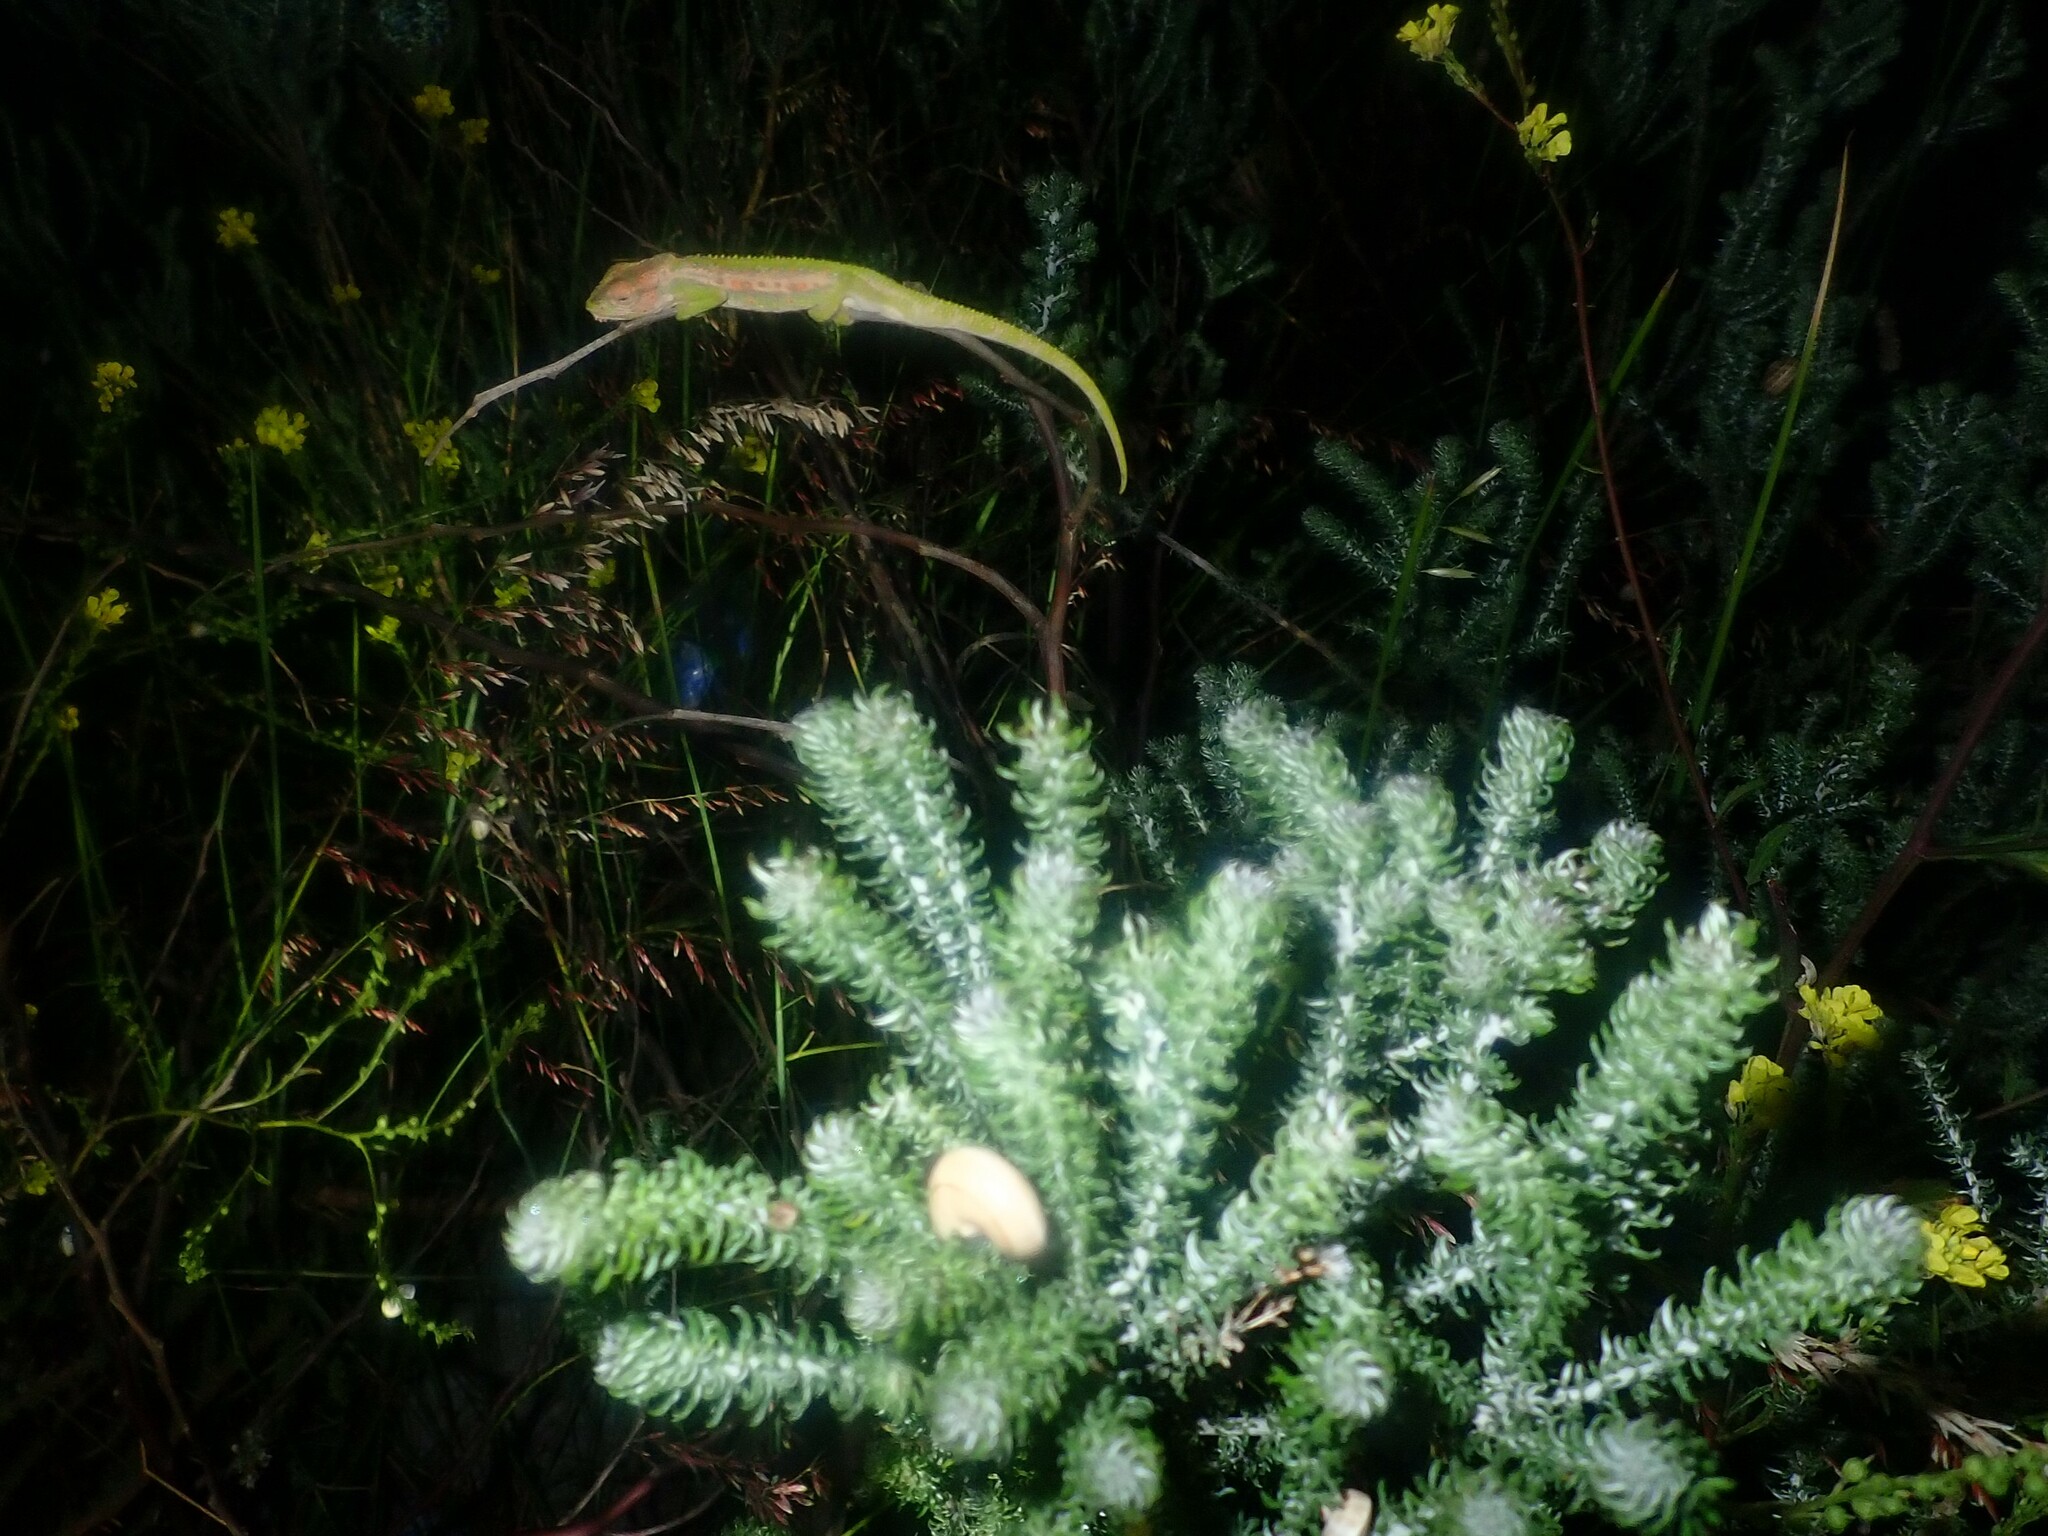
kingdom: Animalia
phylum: Chordata
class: Squamata
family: Chamaeleonidae
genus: Bradypodion
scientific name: Bradypodion pumilum
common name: Cape dwarf chameleon
